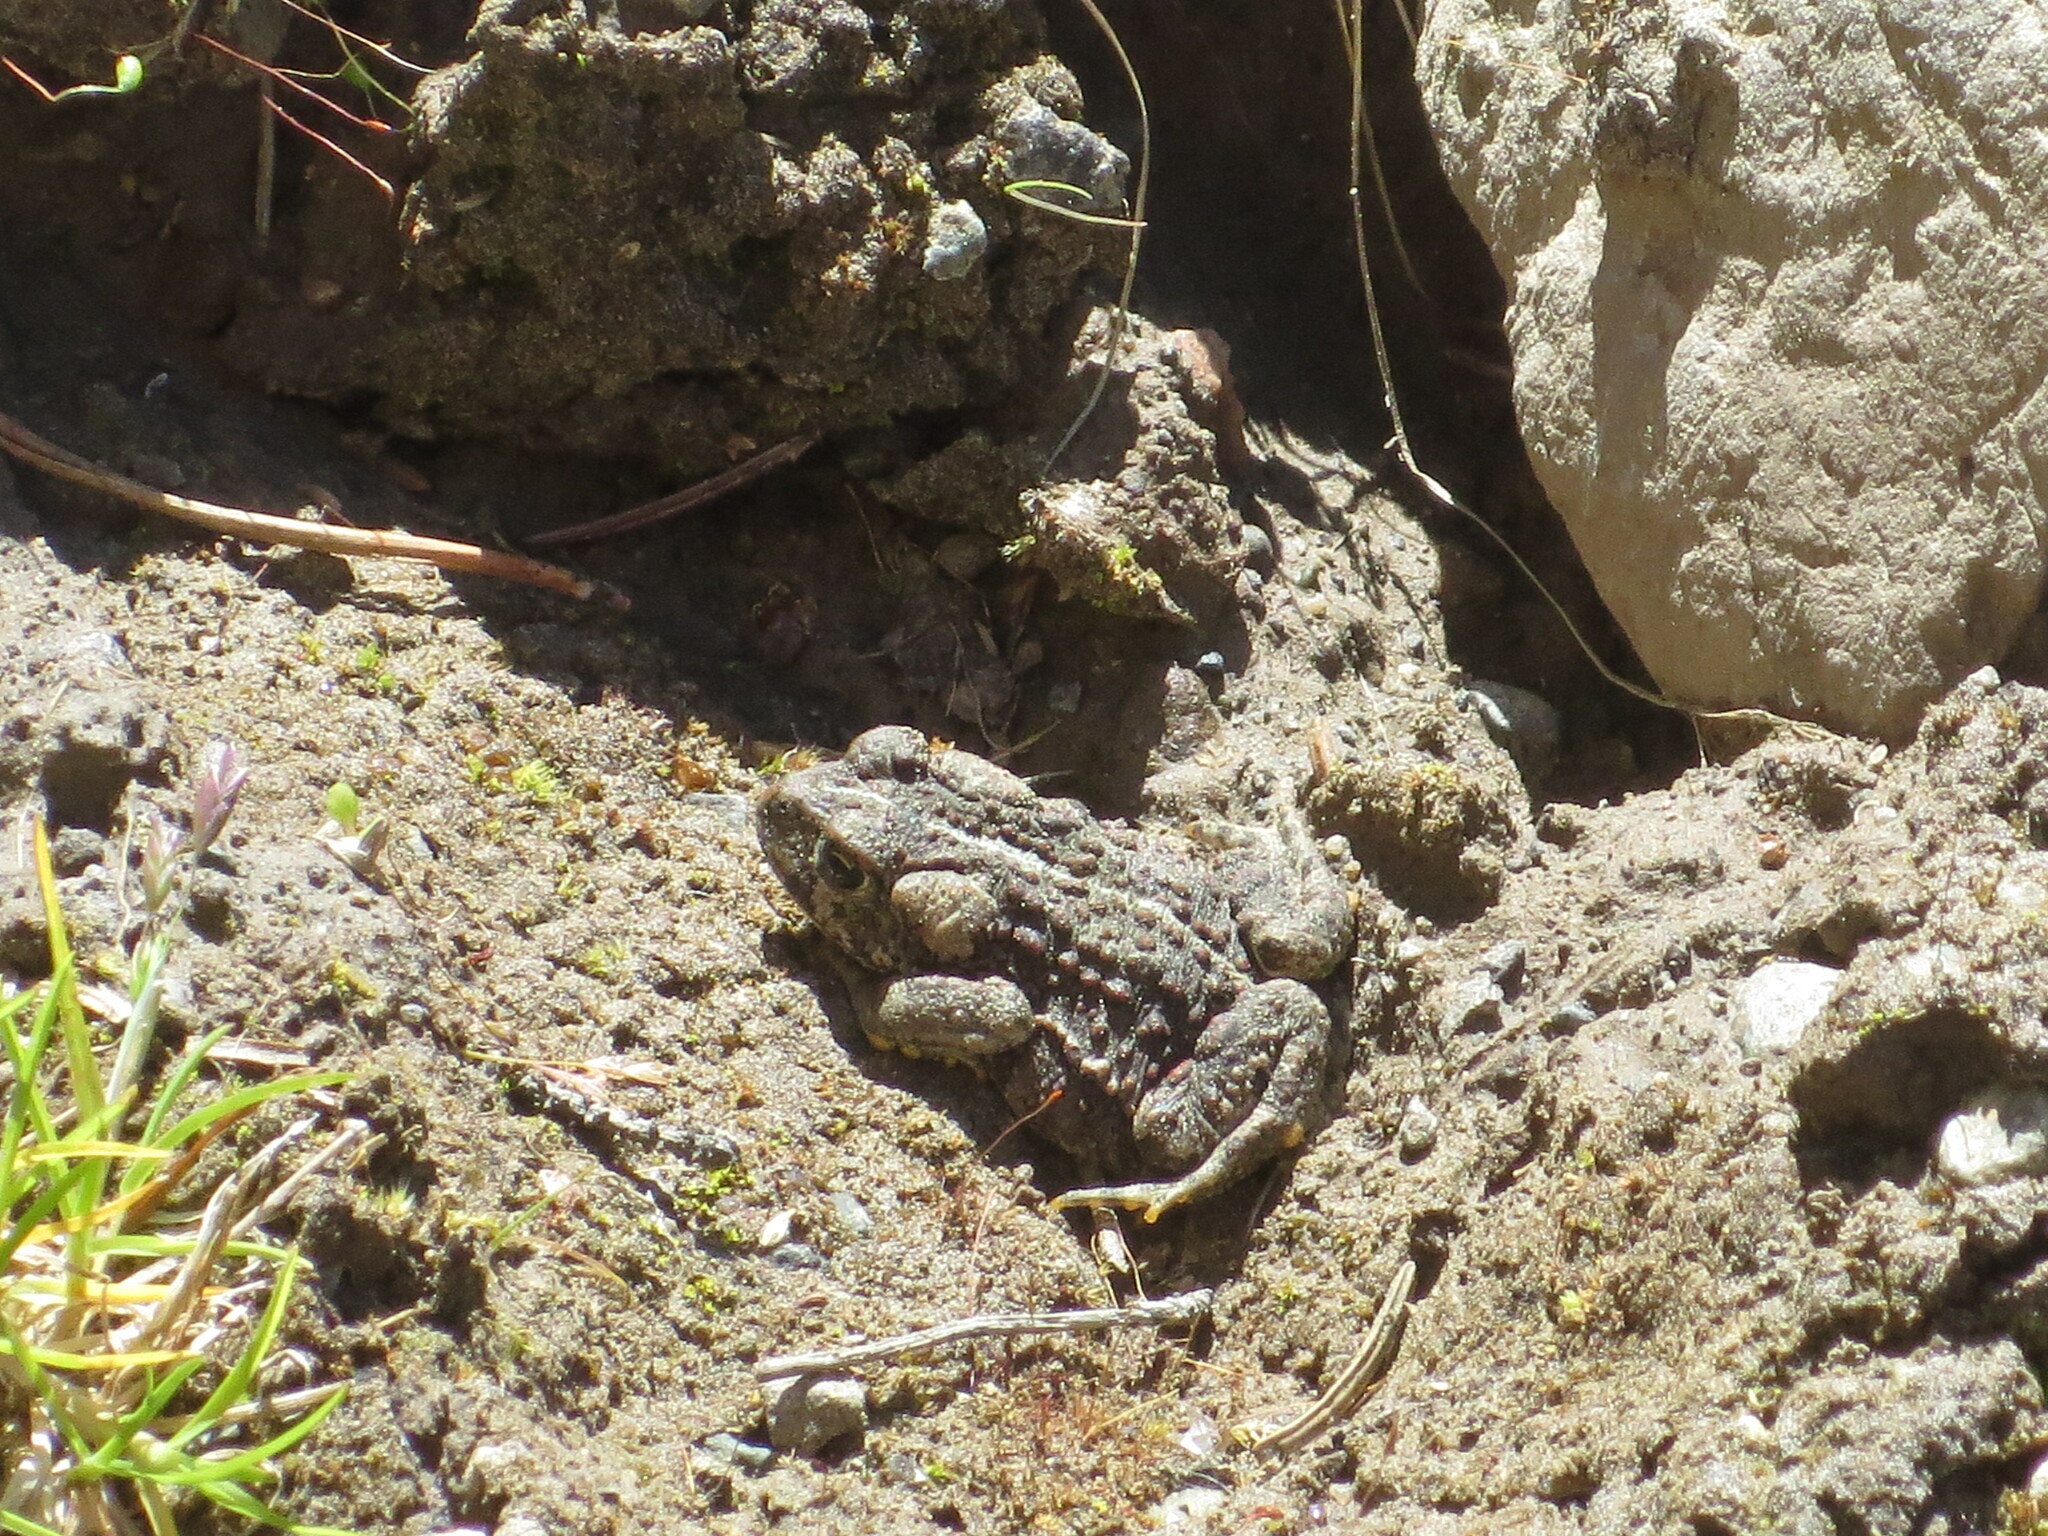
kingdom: Animalia
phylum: Chordata
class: Amphibia
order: Anura
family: Bufonidae
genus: Anaxyrus
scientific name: Anaxyrus boreas
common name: Western toad
